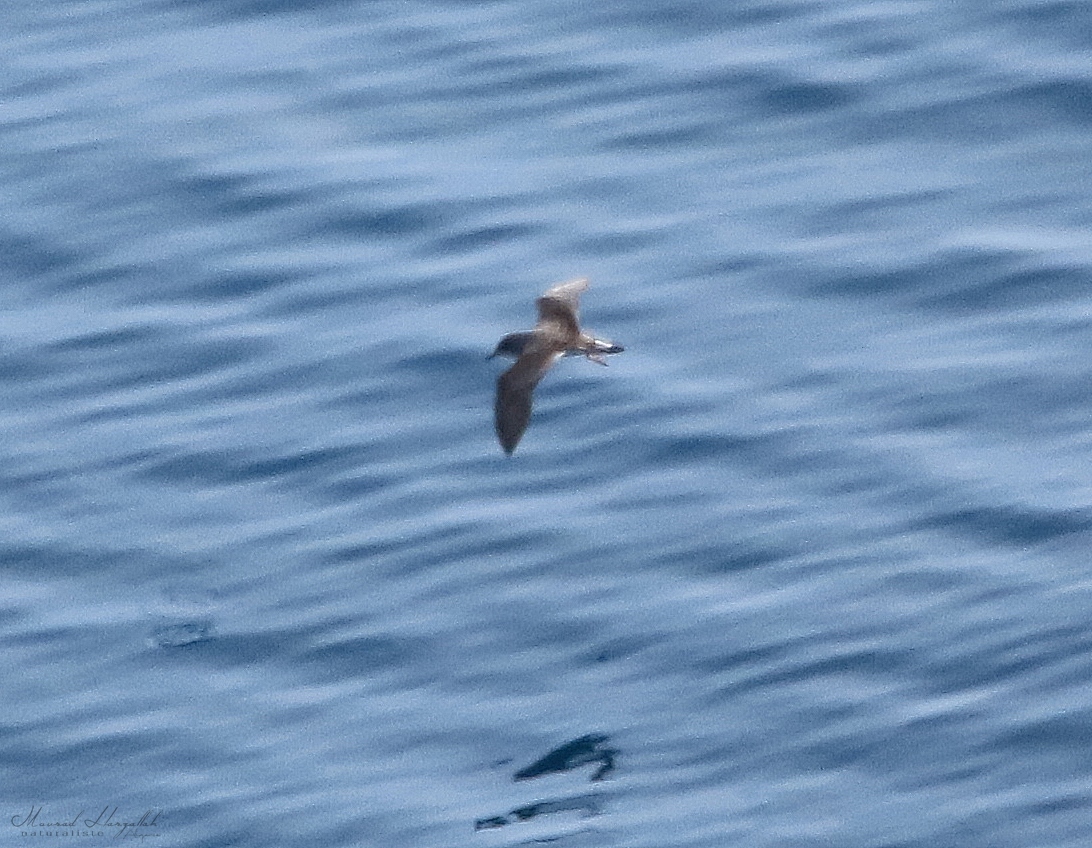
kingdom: Animalia
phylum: Chordata
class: Aves
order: Procellariiformes
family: Procellariidae
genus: Calonectris
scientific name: Calonectris diomedea
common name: Cory's shearwater
